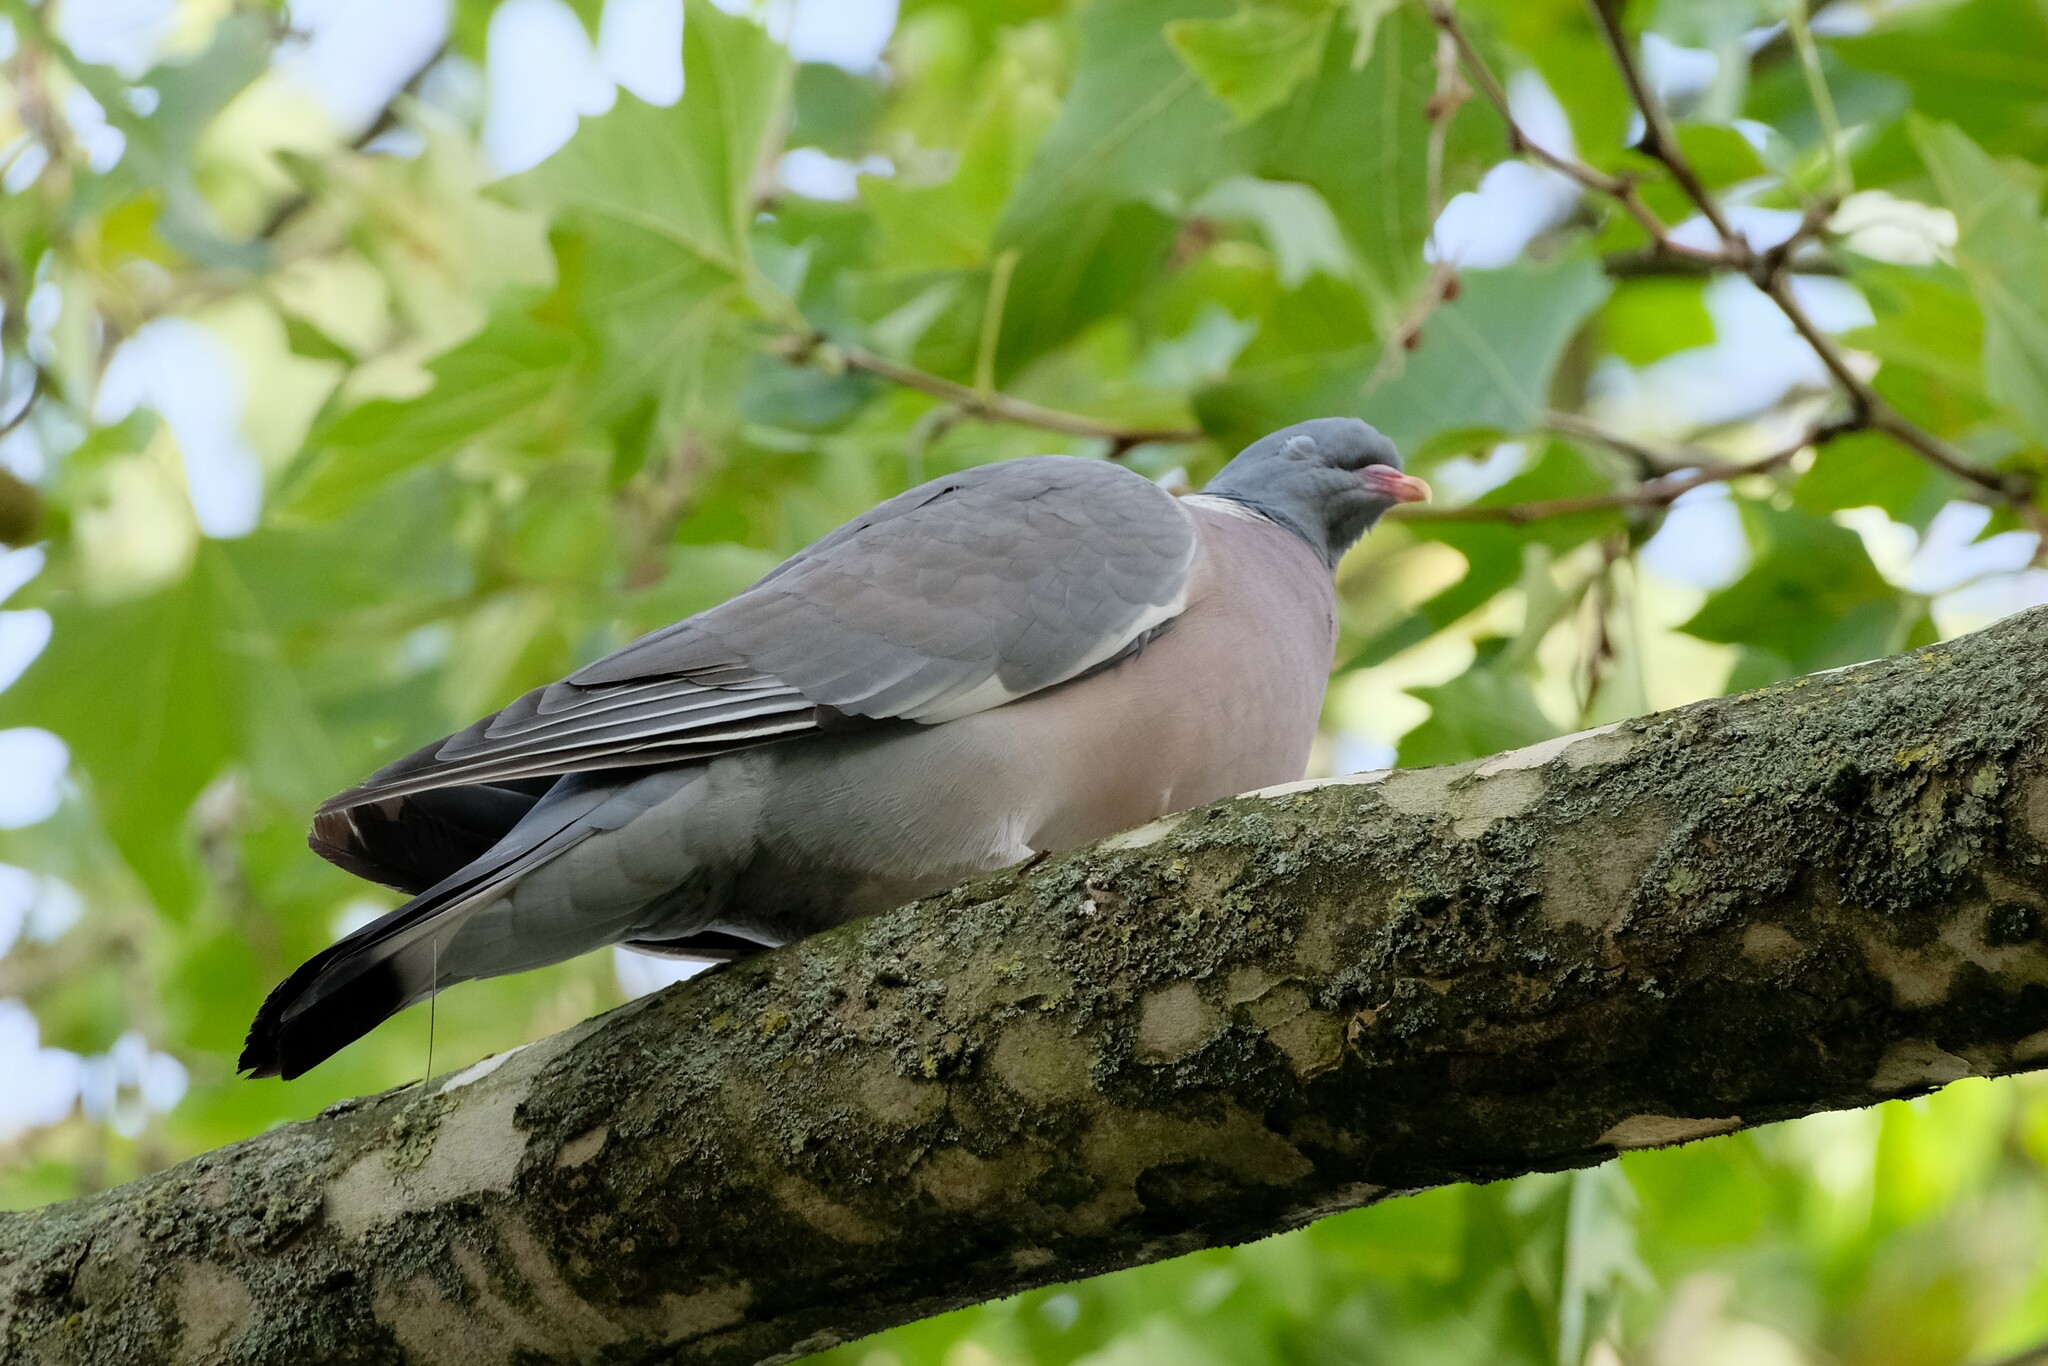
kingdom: Animalia
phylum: Chordata
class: Aves
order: Columbiformes
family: Columbidae
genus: Columba
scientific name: Columba palumbus
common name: Common wood pigeon
